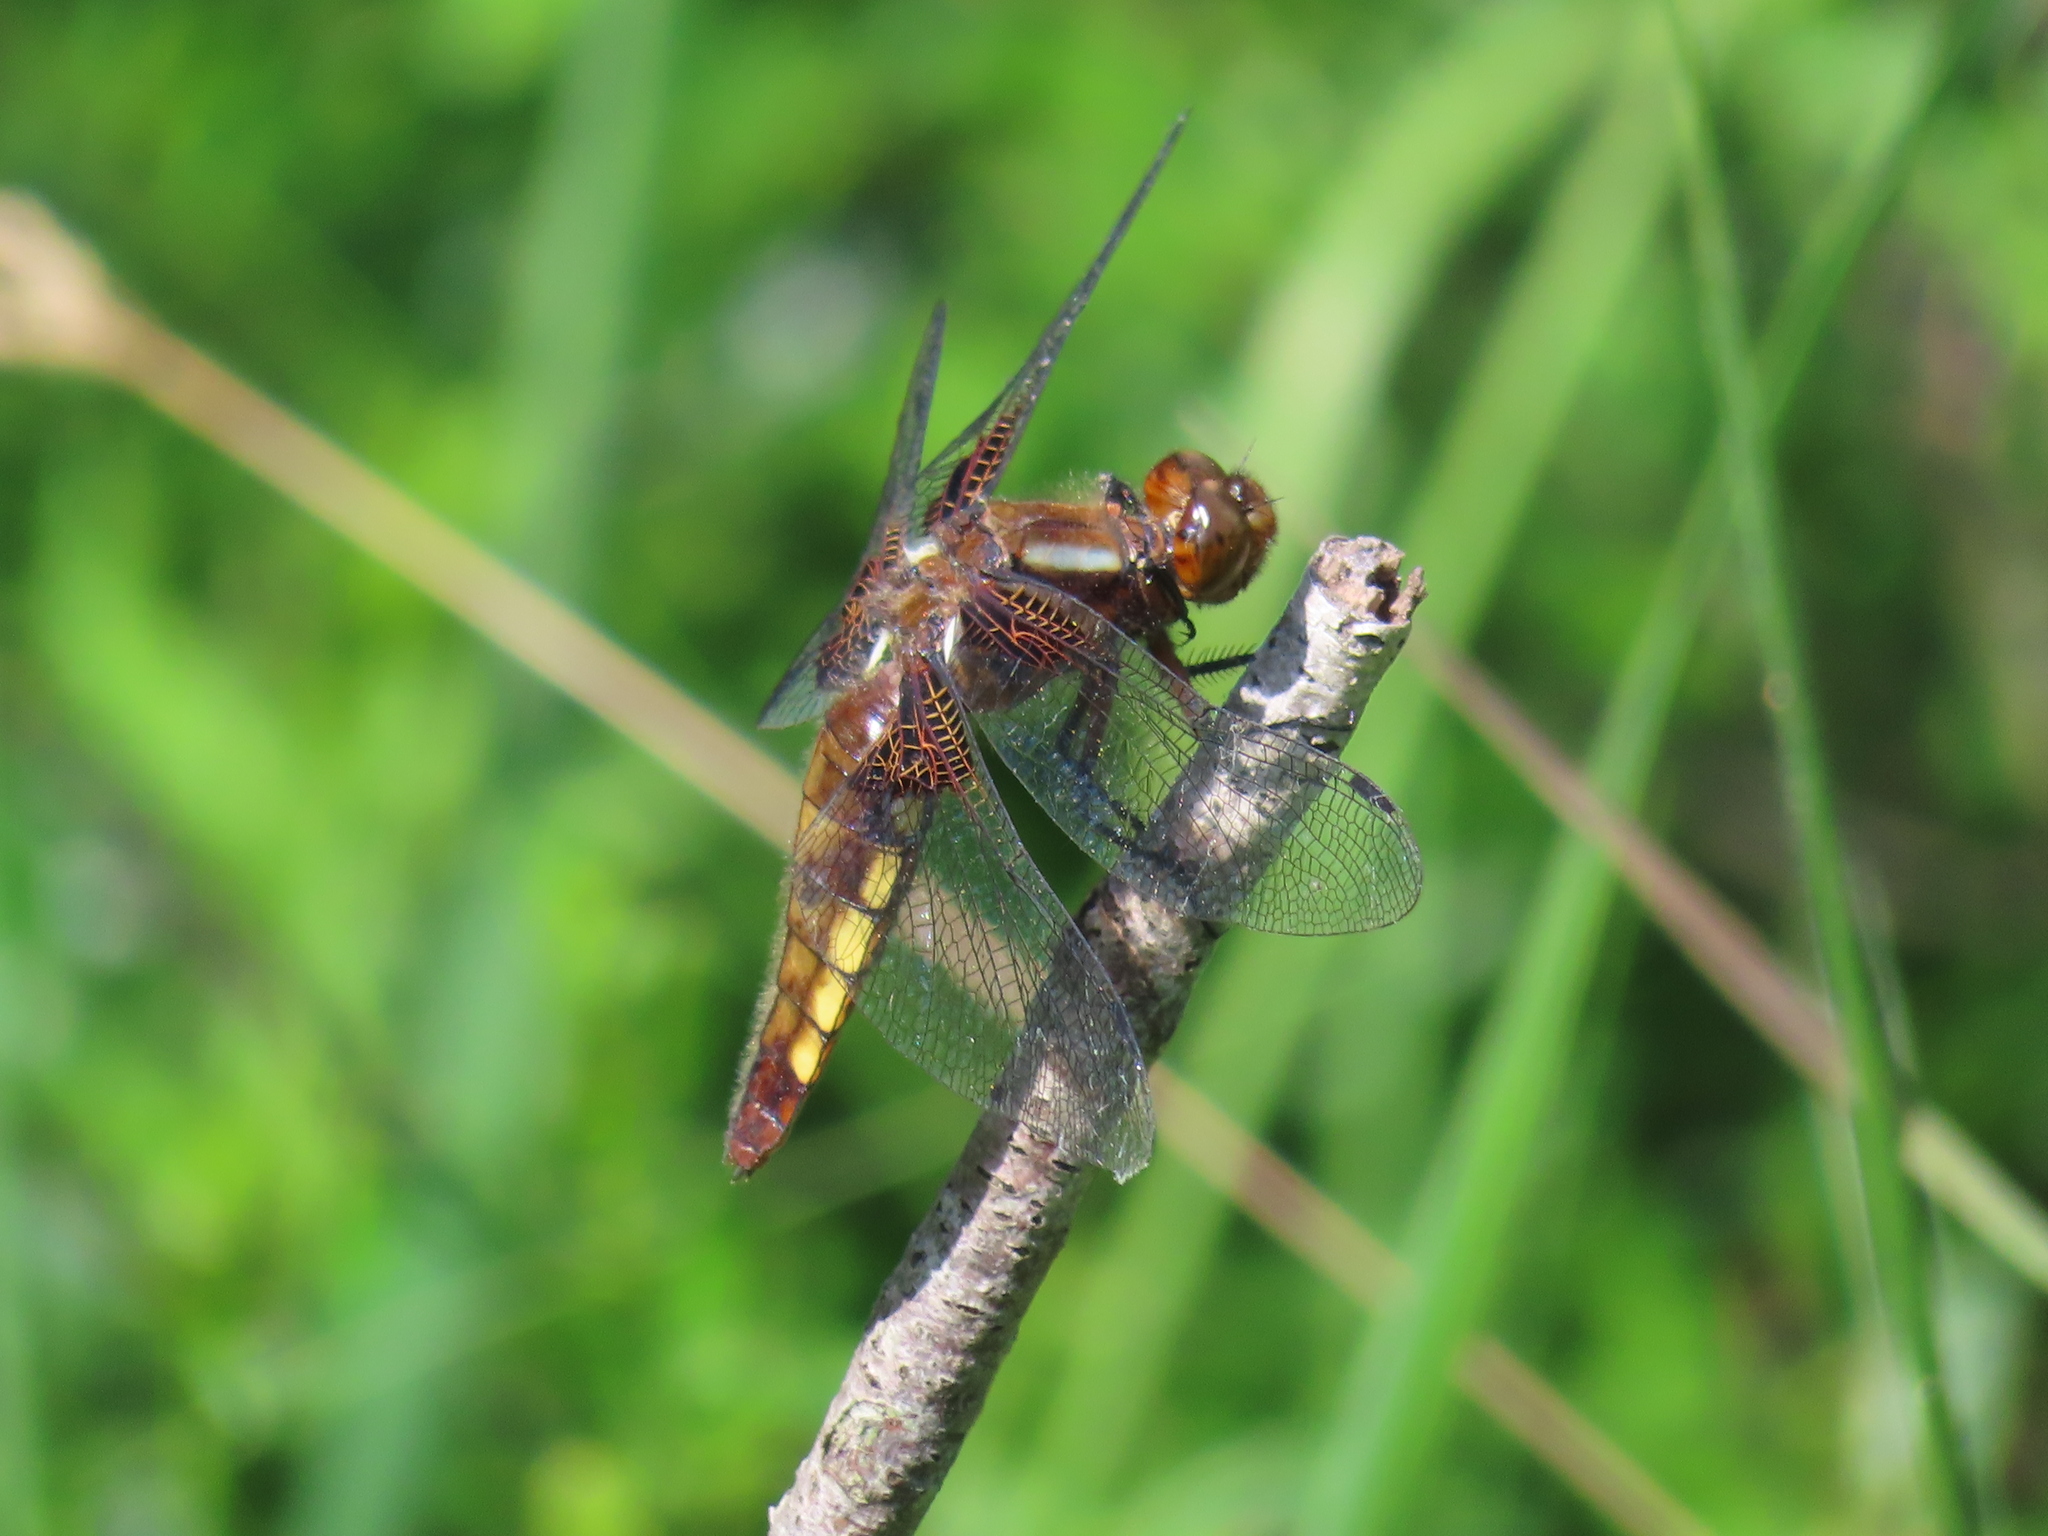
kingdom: Animalia
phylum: Arthropoda
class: Insecta
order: Odonata
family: Libellulidae
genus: Libellula
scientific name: Libellula depressa
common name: Broad-bodied chaser
